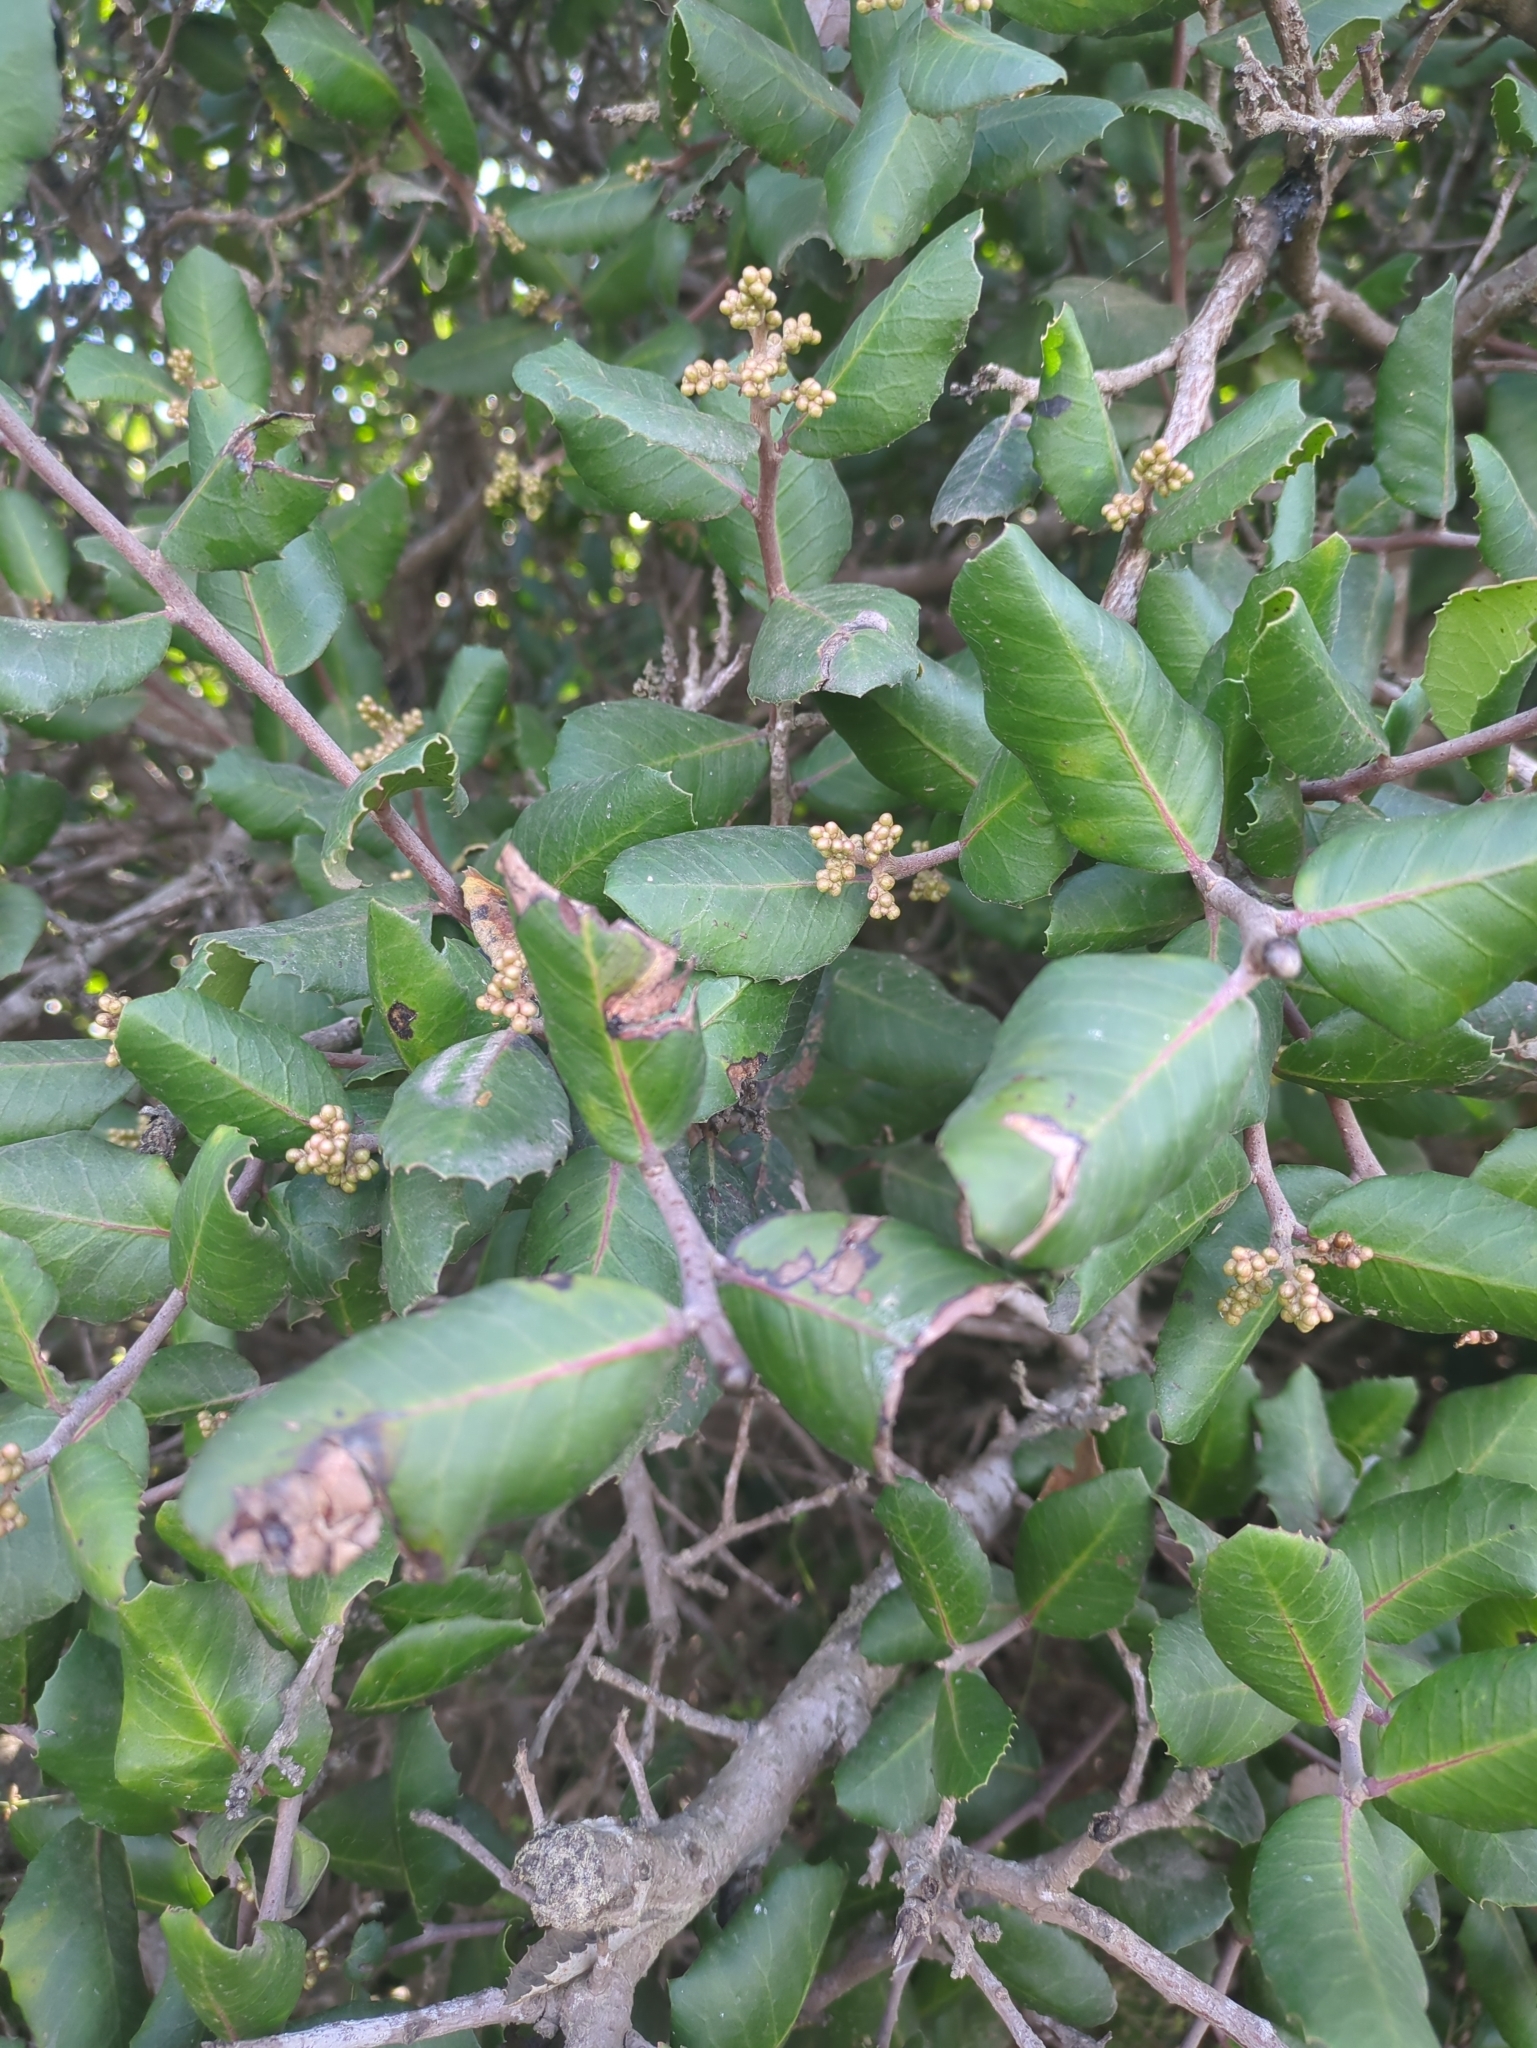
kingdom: Plantae
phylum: Tracheophyta
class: Magnoliopsida
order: Sapindales
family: Anacardiaceae
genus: Rhus
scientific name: Rhus integrifolia
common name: Lemonade sumac
